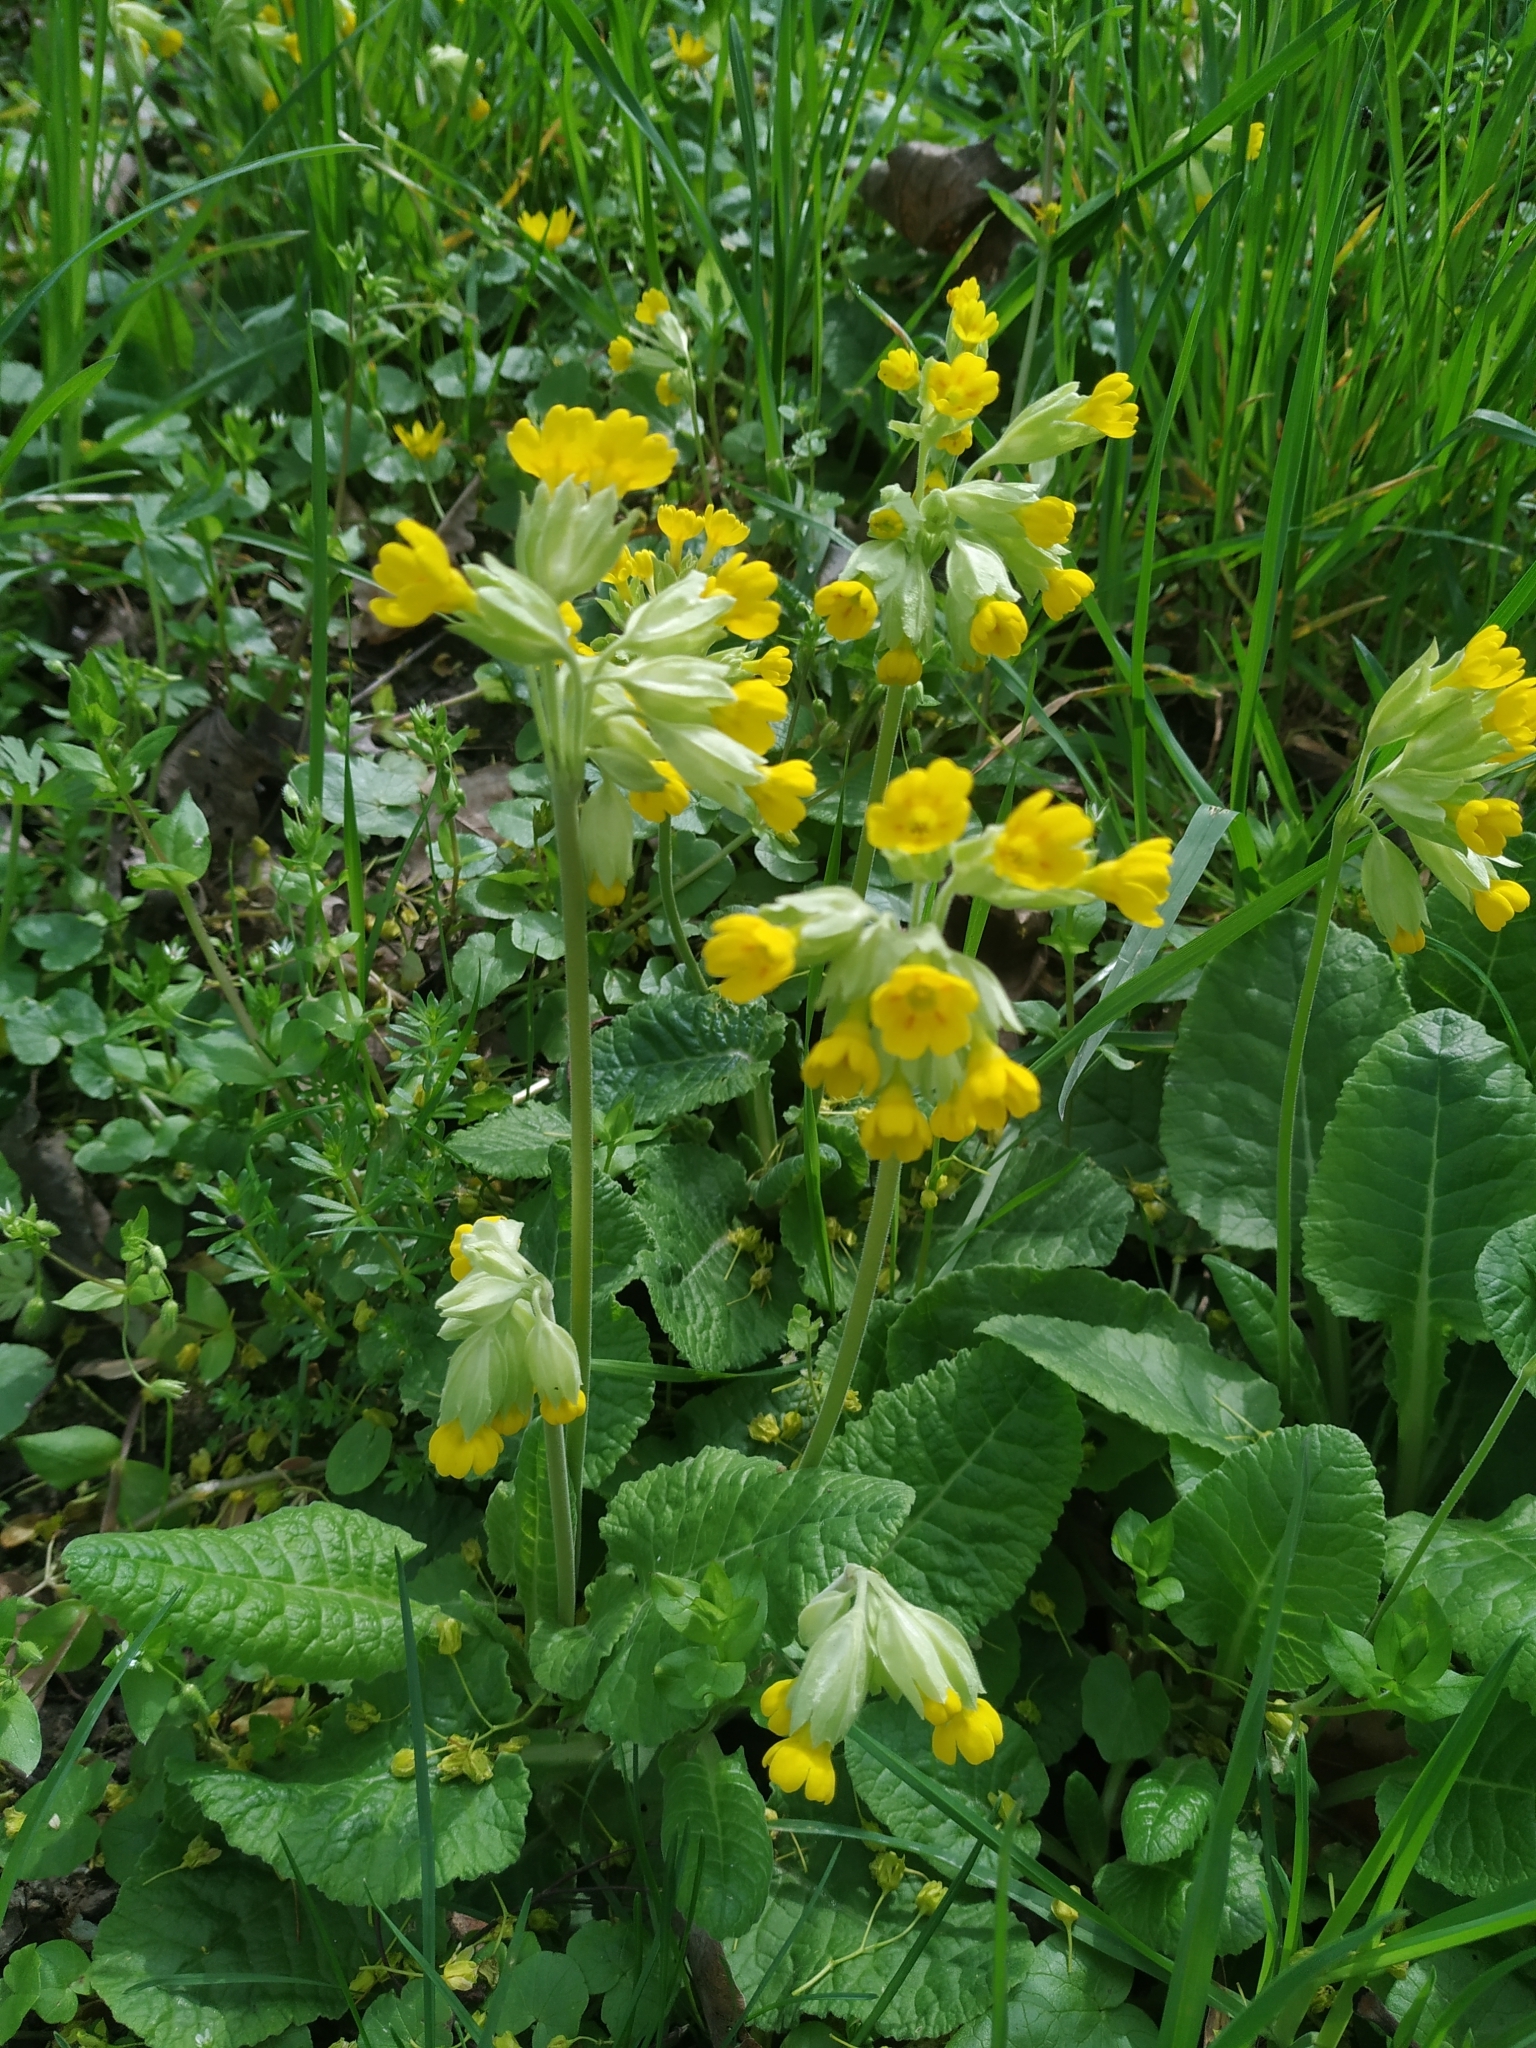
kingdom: Plantae
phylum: Tracheophyta
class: Magnoliopsida
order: Ericales
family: Primulaceae
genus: Primula
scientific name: Primula veris
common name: Cowslip
